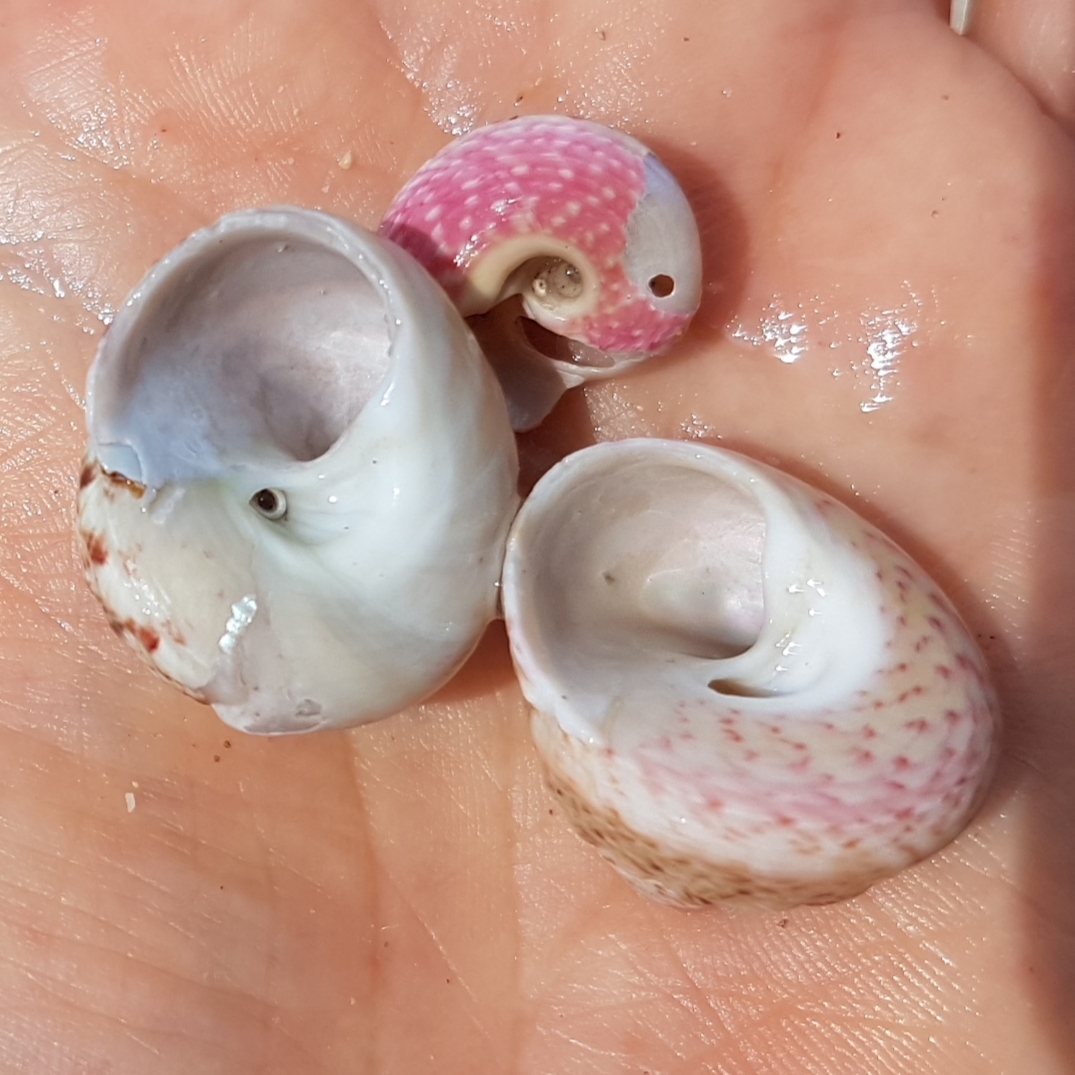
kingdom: Animalia
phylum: Mollusca
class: Gastropoda
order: Trochida
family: Trochidae
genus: Gibbula
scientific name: Gibbula magus
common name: Turban top shell
